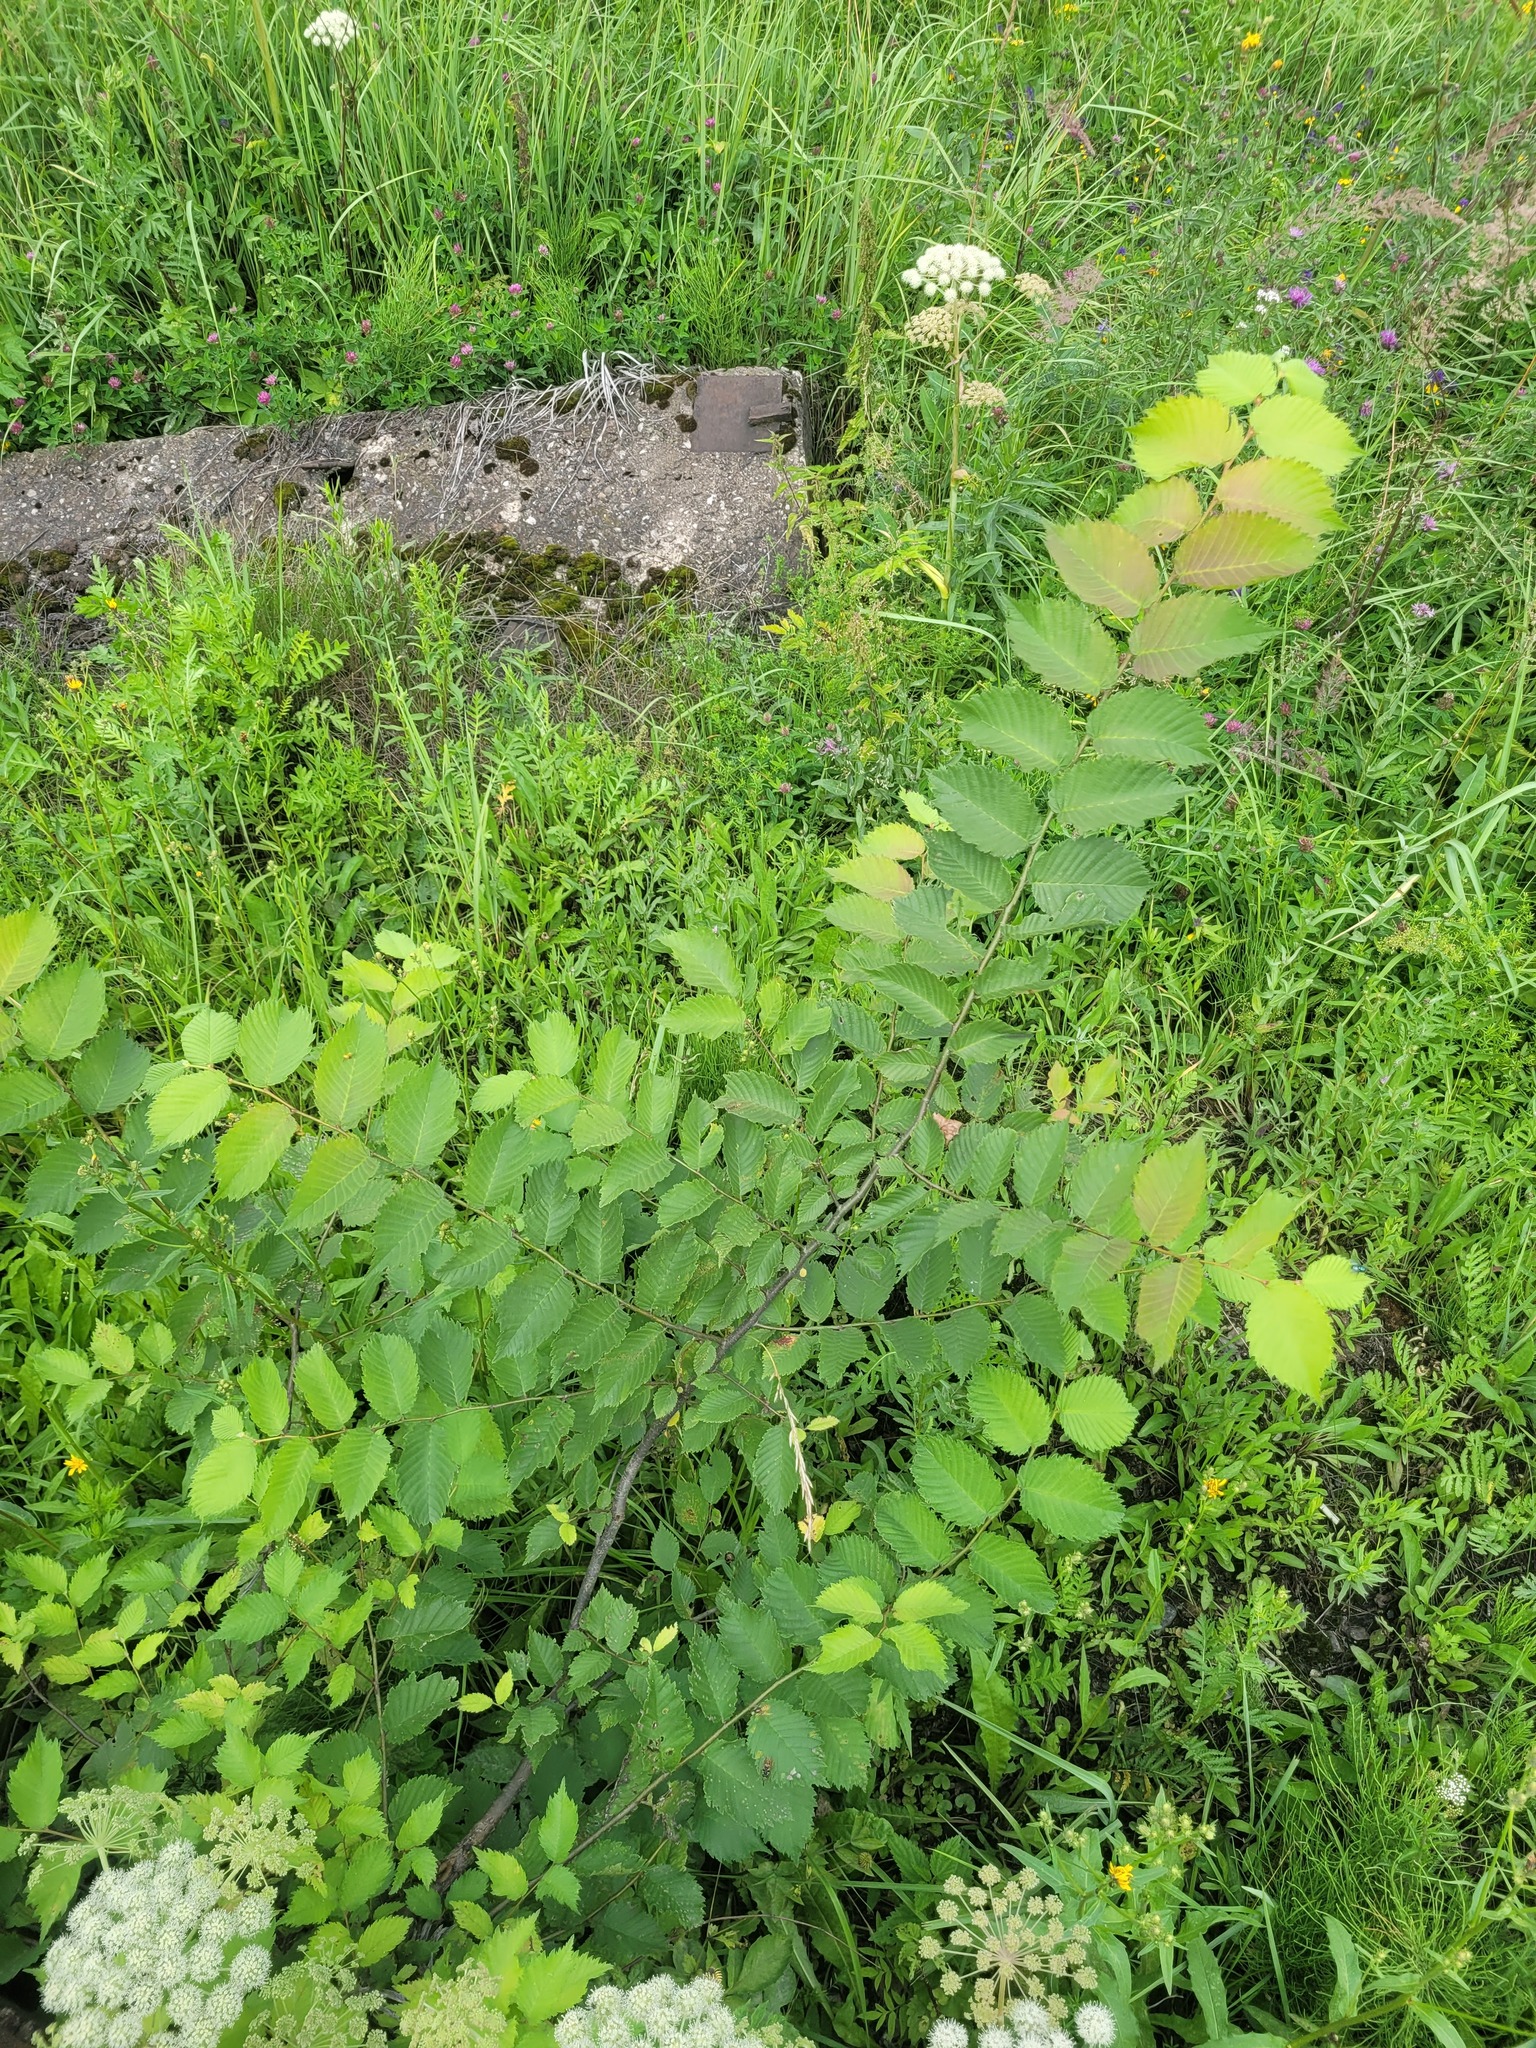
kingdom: Plantae
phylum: Tracheophyta
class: Magnoliopsida
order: Rosales
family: Ulmaceae
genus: Ulmus
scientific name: Ulmus laevis
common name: European white-elm
